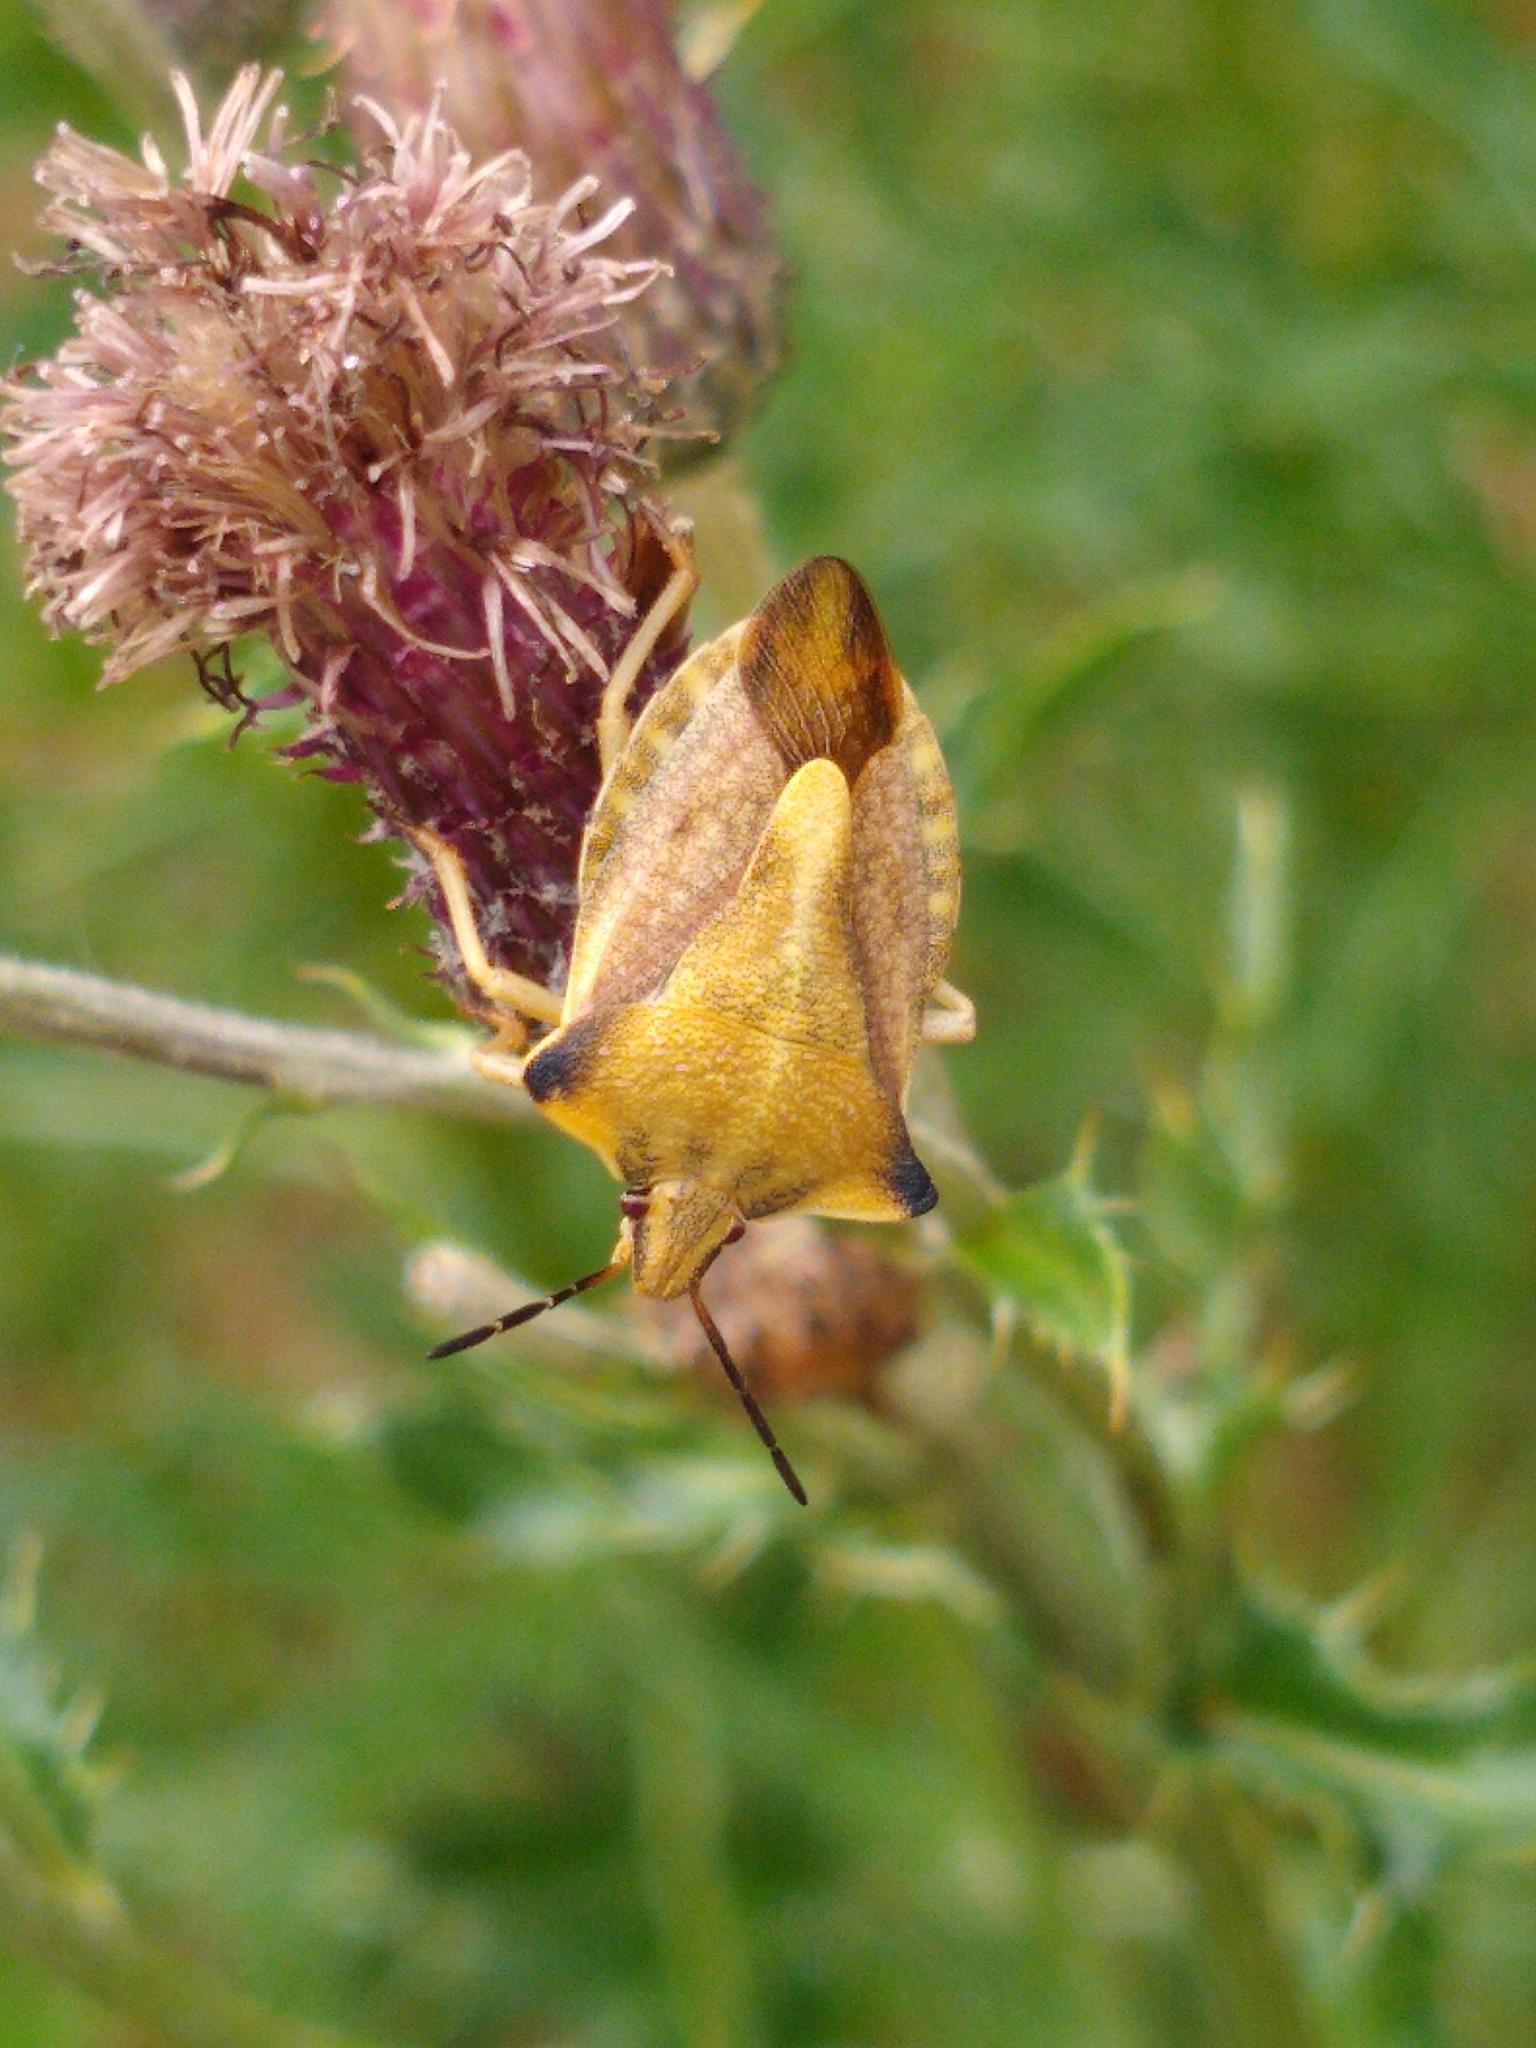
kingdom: Animalia
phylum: Arthropoda
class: Insecta
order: Hemiptera
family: Pentatomidae
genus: Carpocoris
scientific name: Carpocoris fuscispinus
